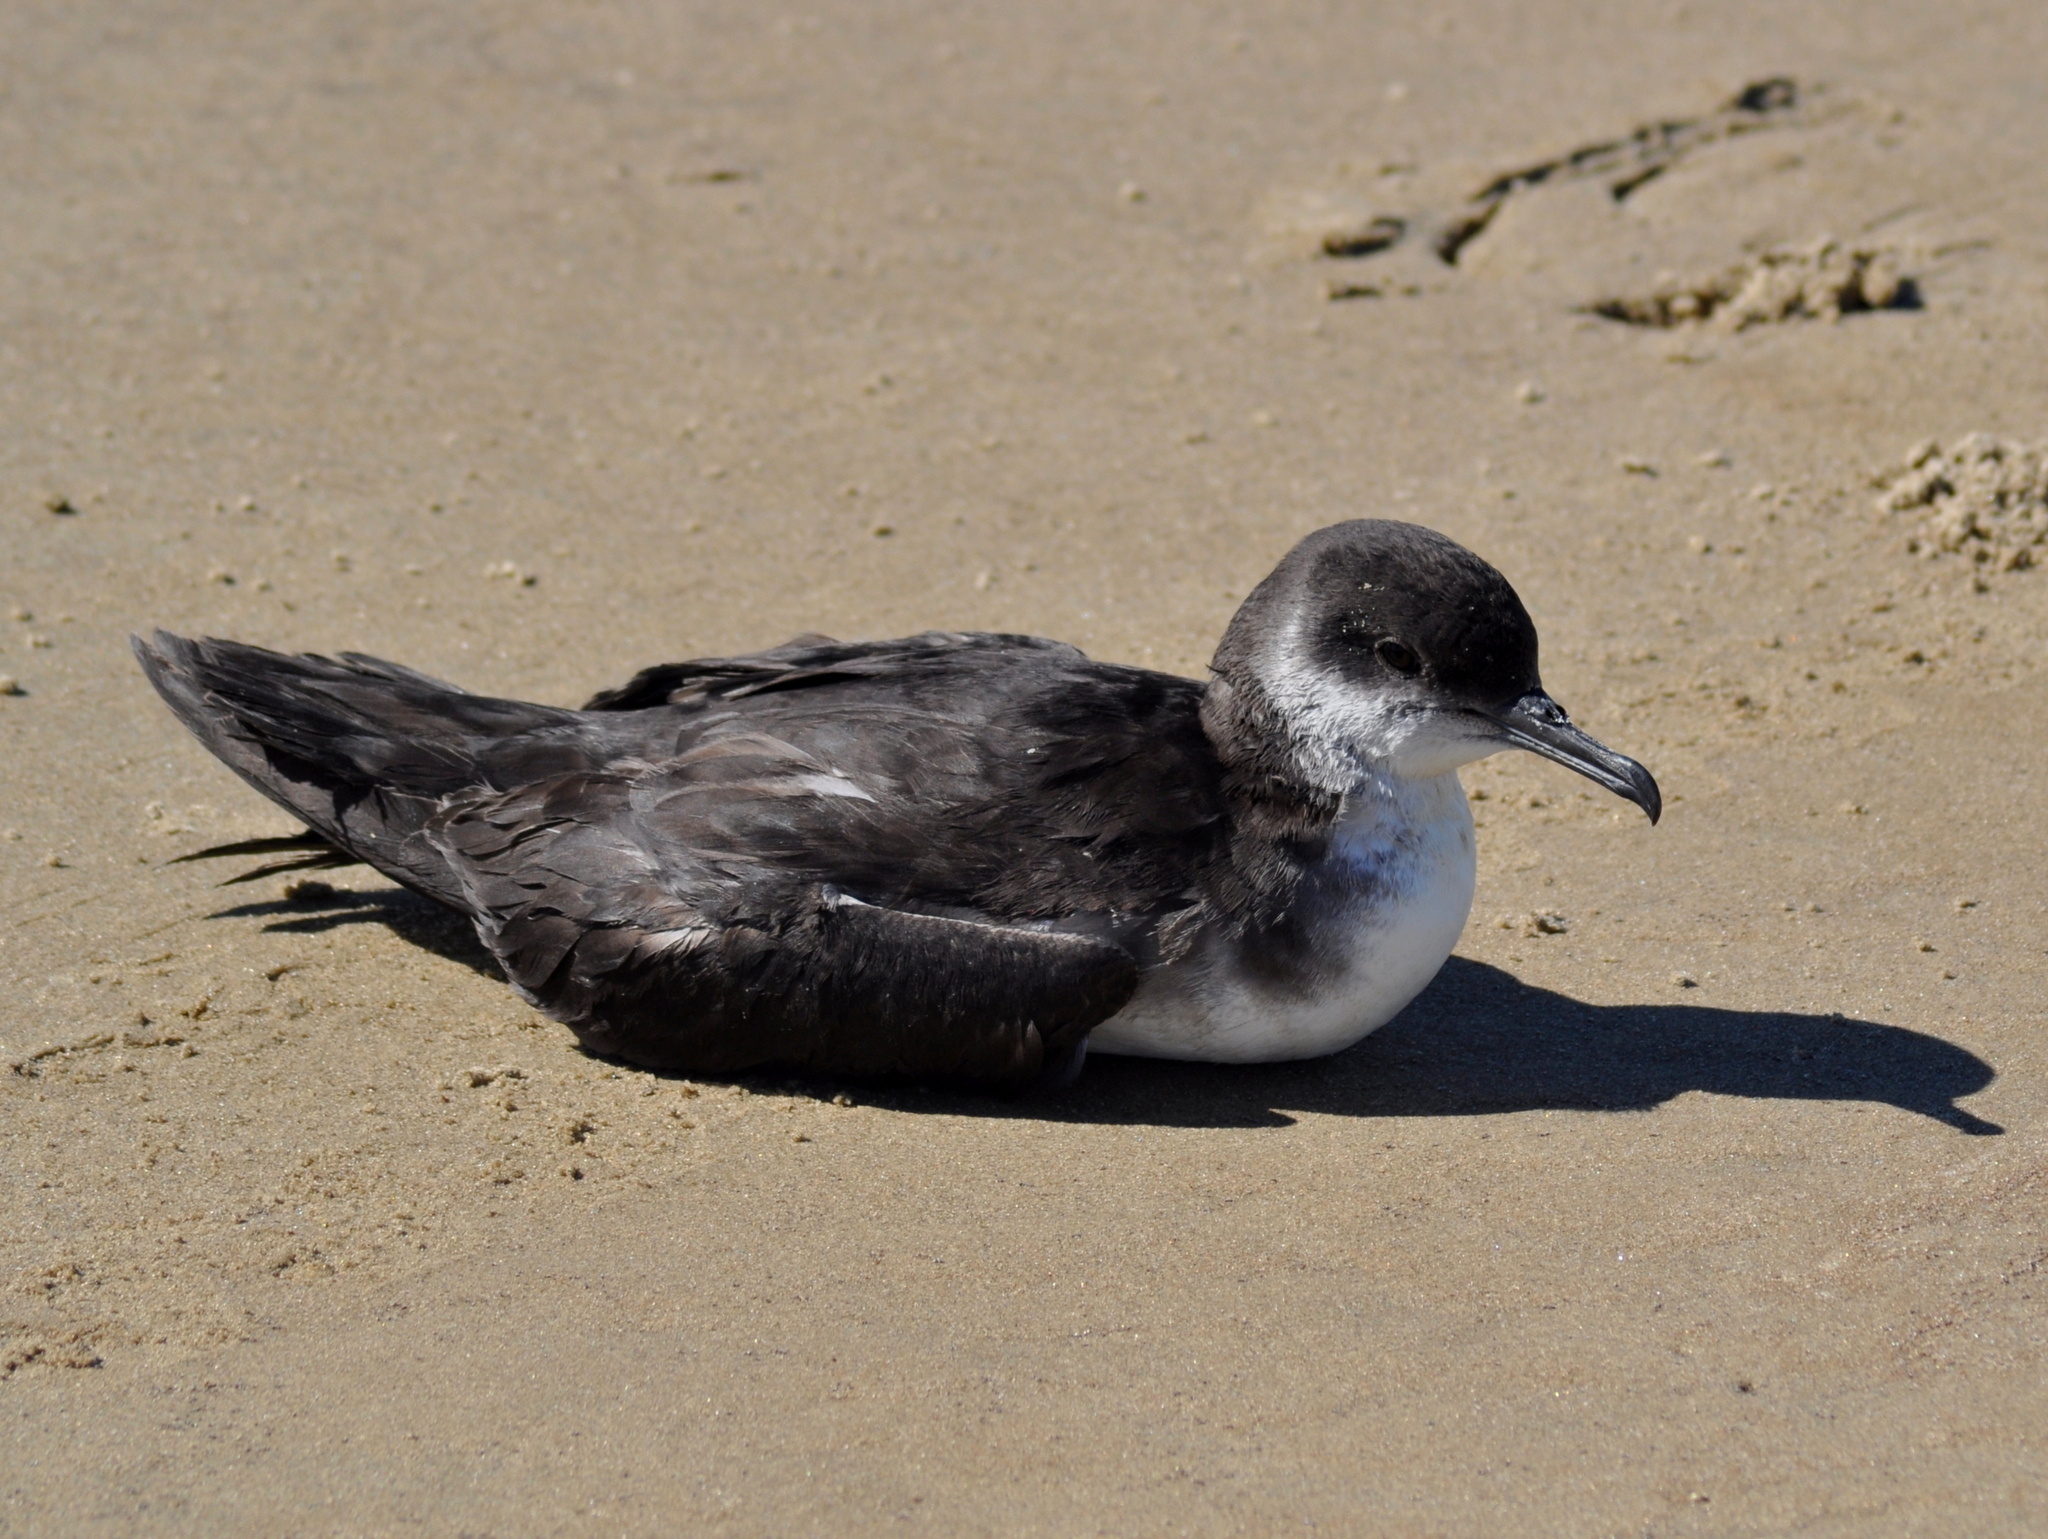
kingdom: Animalia
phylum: Chordata
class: Aves
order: Procellariiformes
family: Procellariidae
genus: Puffinus
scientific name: Puffinus puffinus
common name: Manx shearwater
